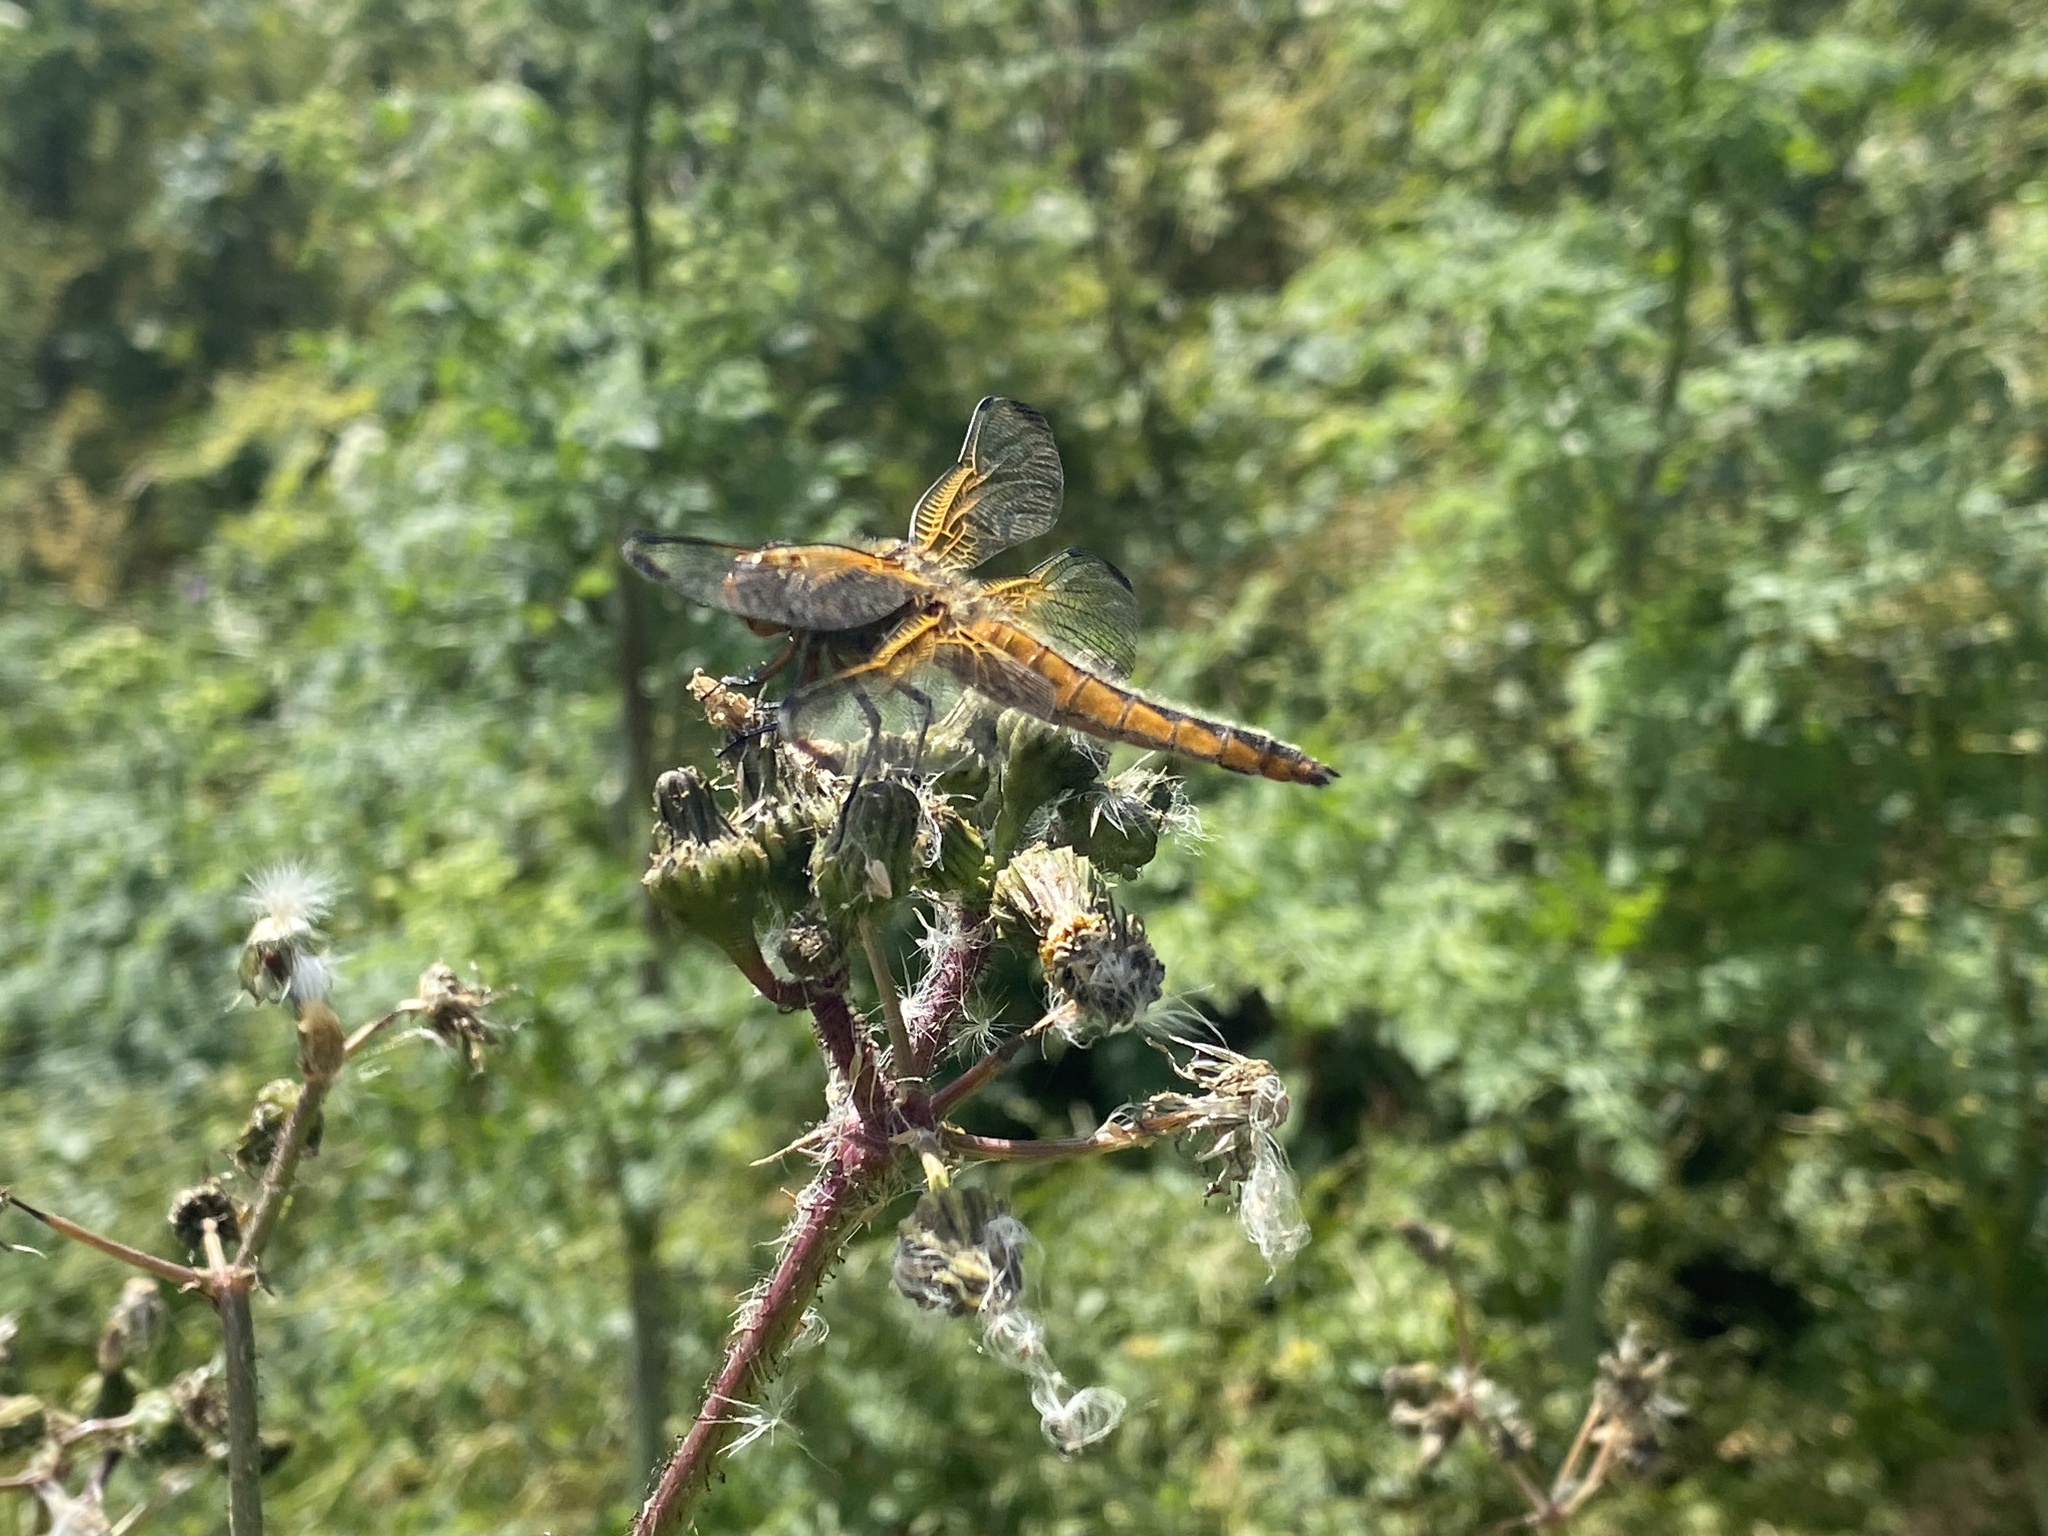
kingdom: Animalia
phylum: Arthropoda
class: Insecta
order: Odonata
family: Libellulidae
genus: Libellula
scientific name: Libellula fulva
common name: Blue chaser
